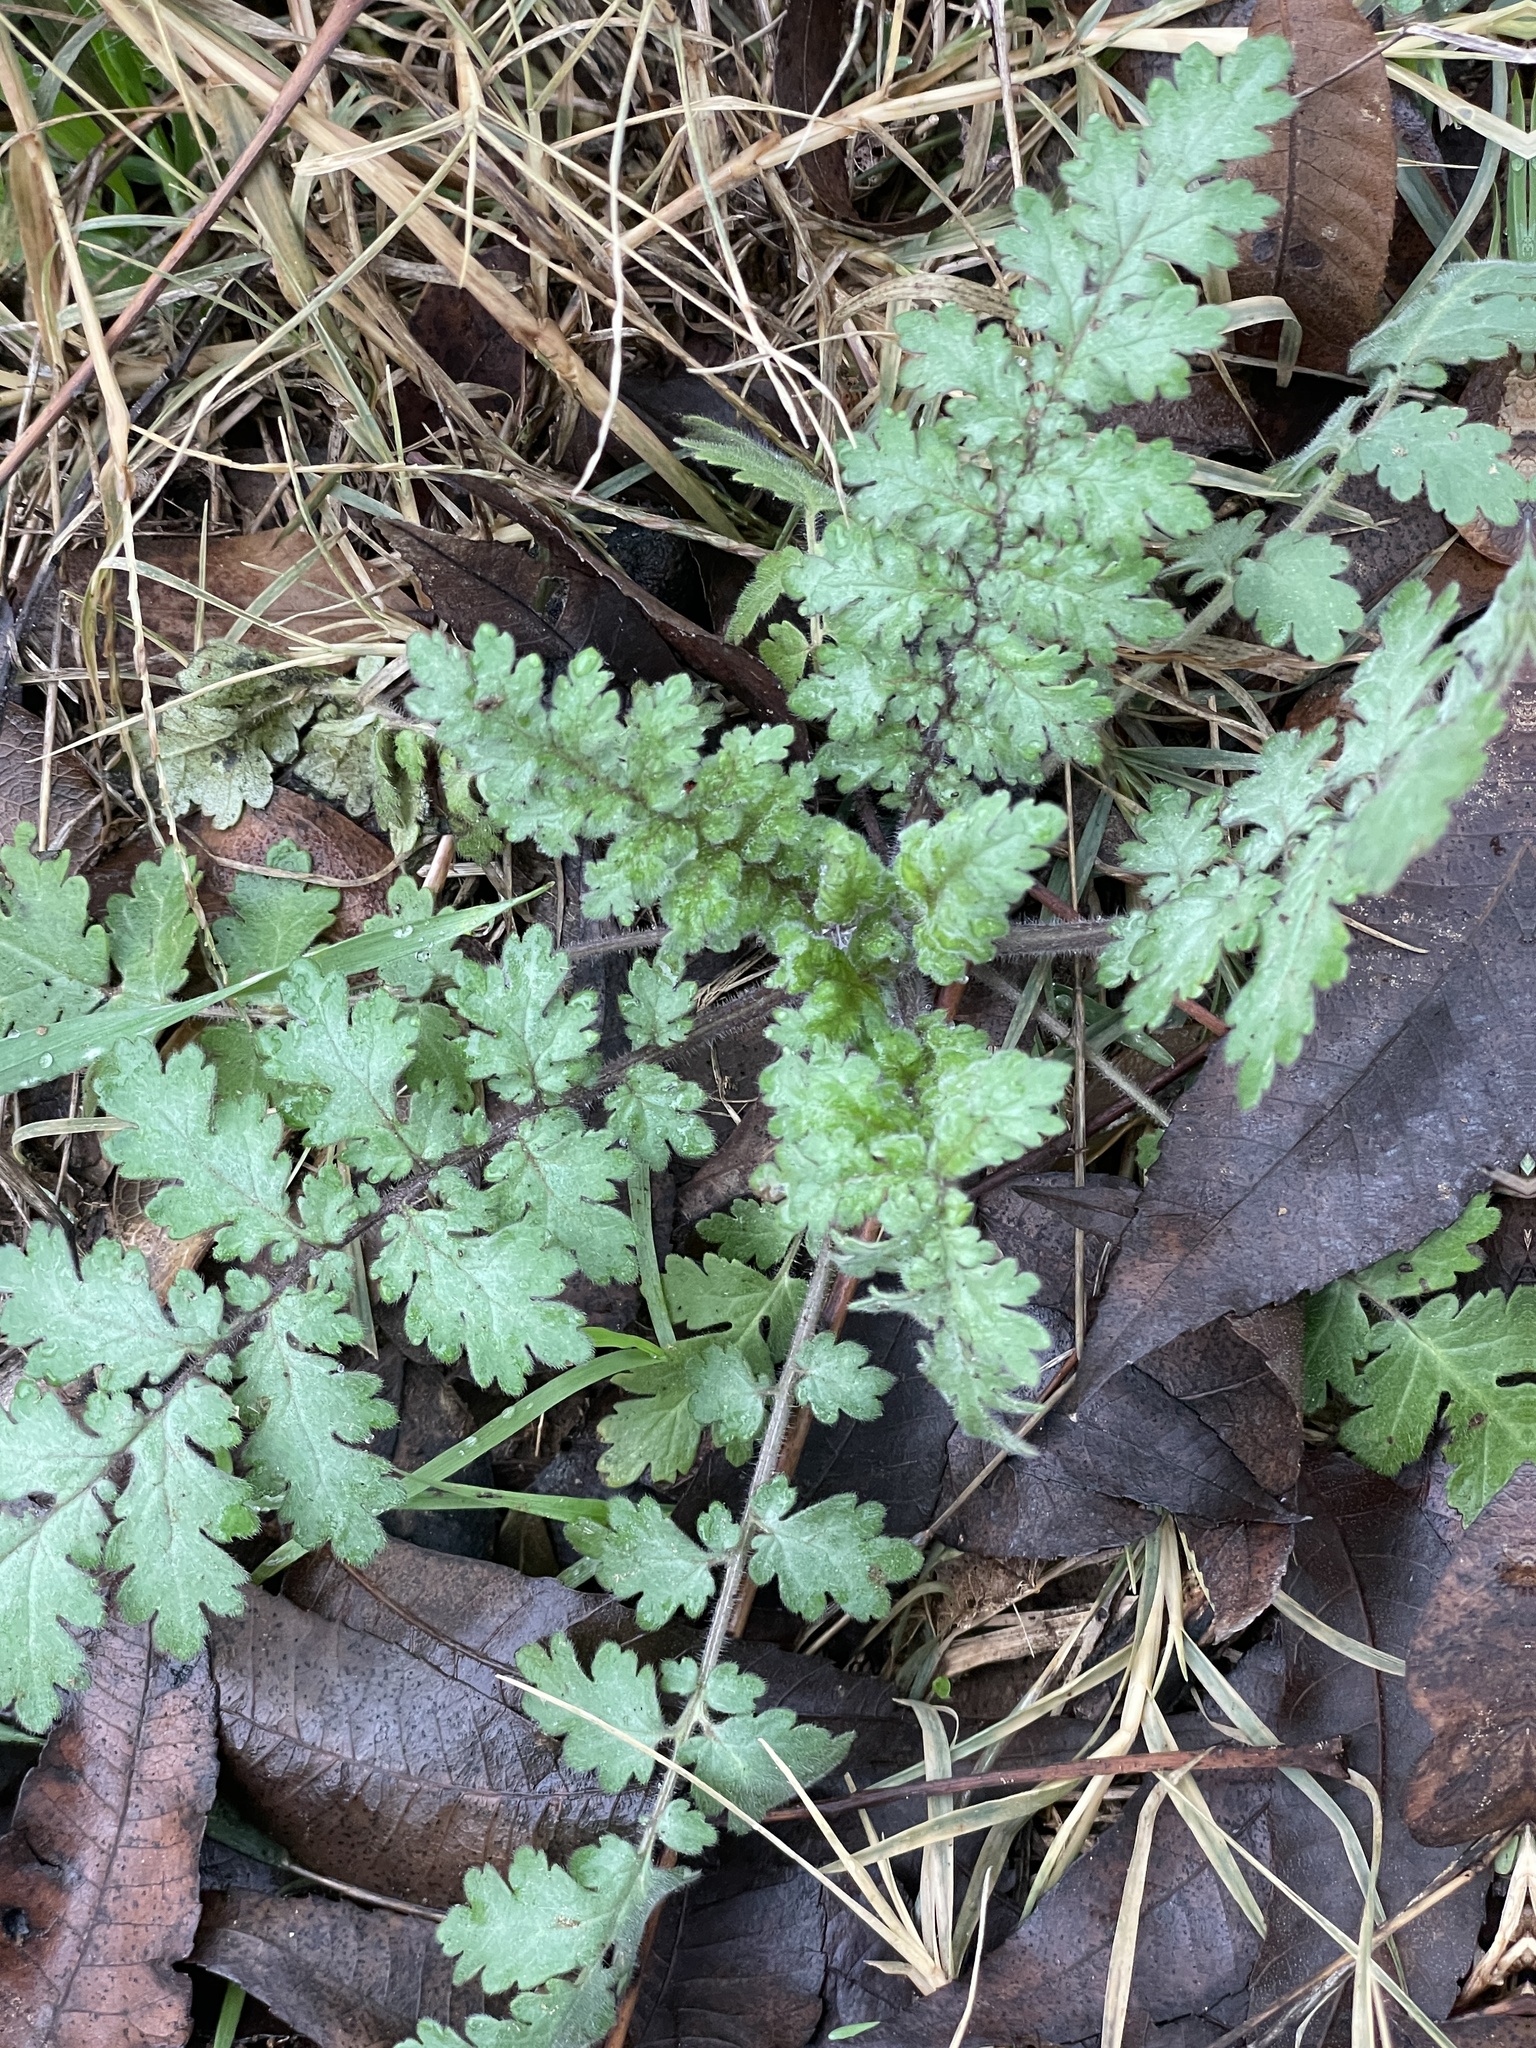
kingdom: Plantae
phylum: Tracheophyta
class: Magnoliopsida
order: Boraginales
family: Hydrophyllaceae
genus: Phacelia
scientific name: Phacelia congesta
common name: Blue curls
